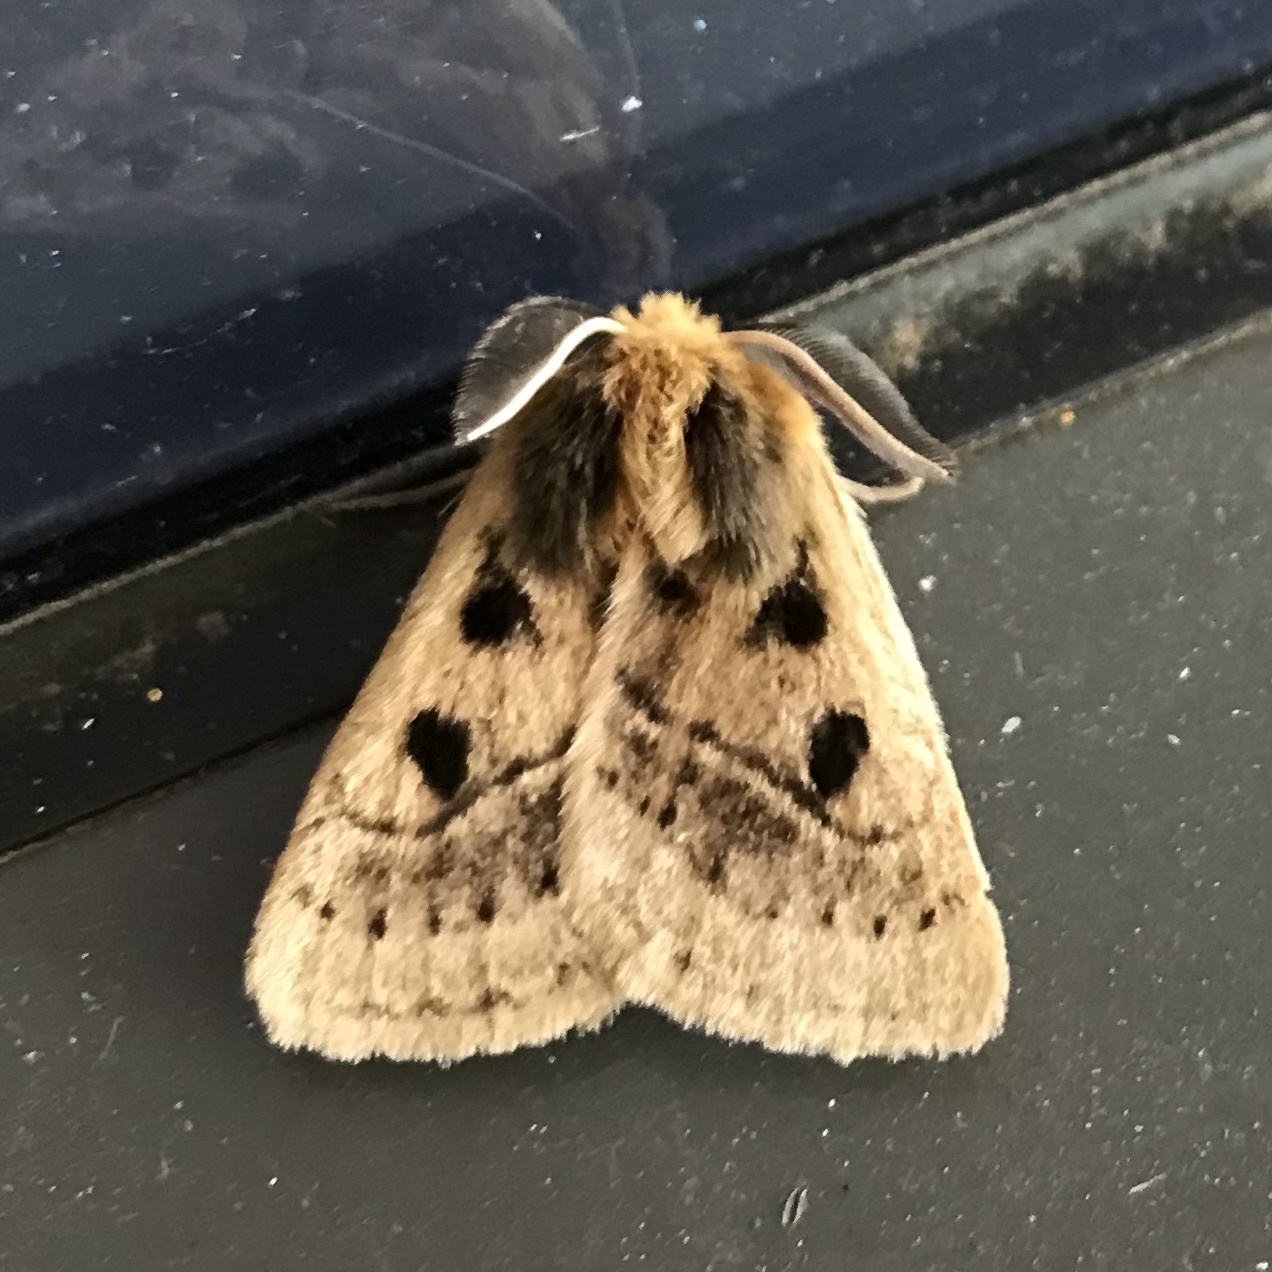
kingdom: Animalia
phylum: Arthropoda
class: Insecta
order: Lepidoptera
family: Anthelidae
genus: Anthela
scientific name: Anthela ocellata
